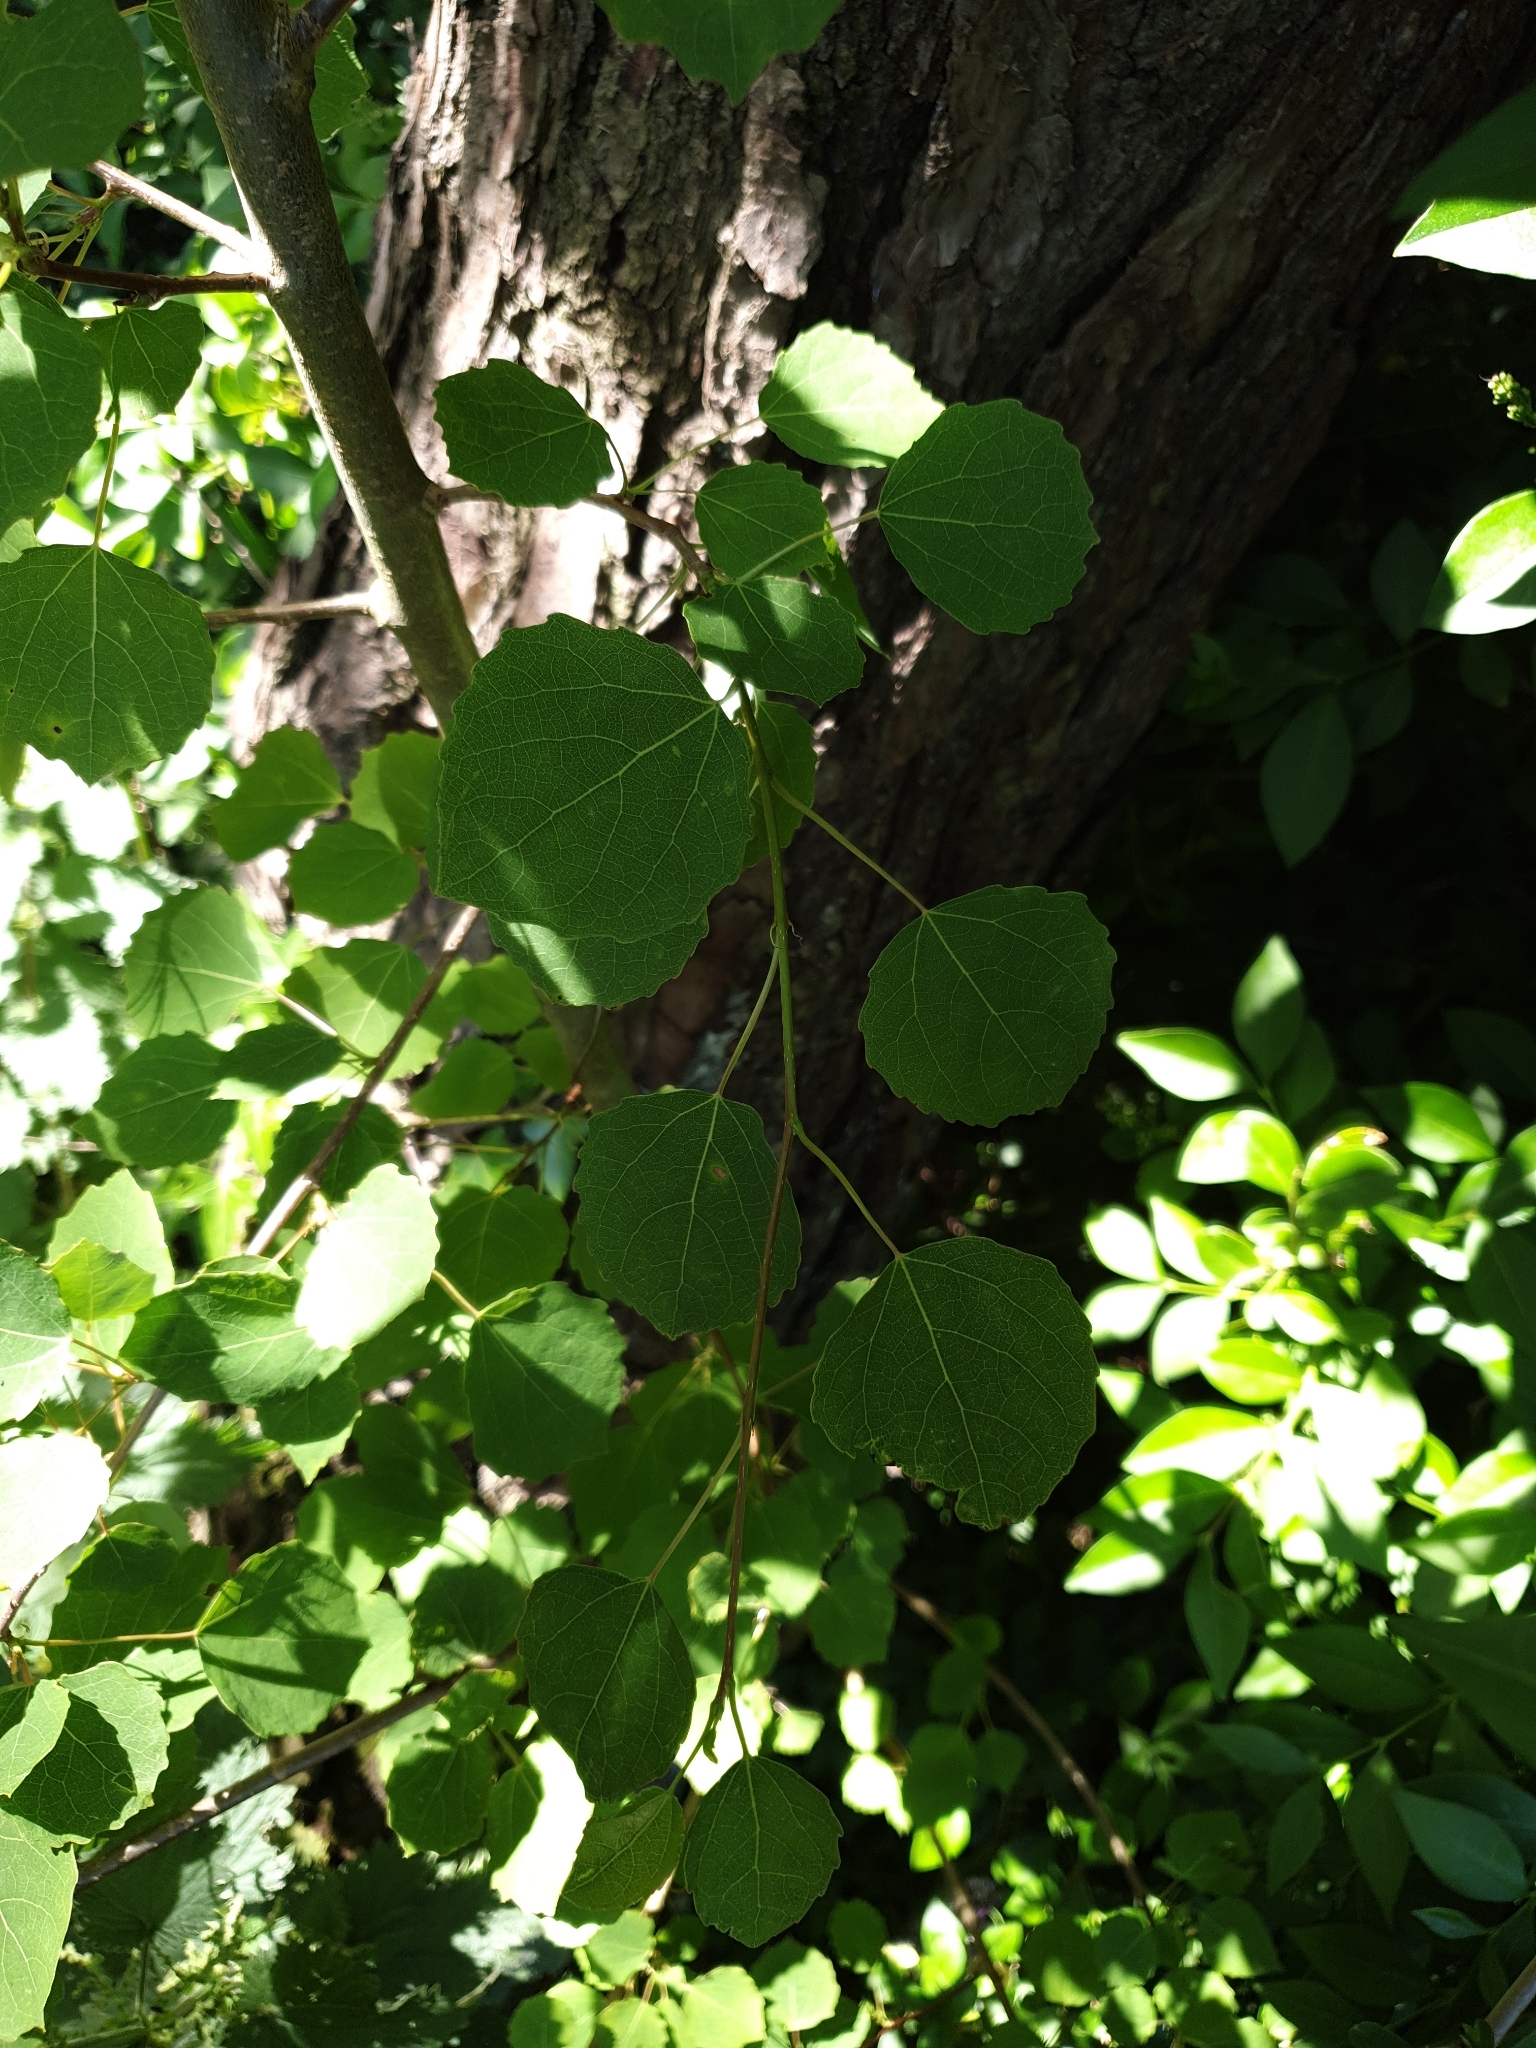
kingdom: Plantae
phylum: Tracheophyta
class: Magnoliopsida
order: Malpighiales
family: Salicaceae
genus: Populus
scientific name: Populus tremula
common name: European aspen
